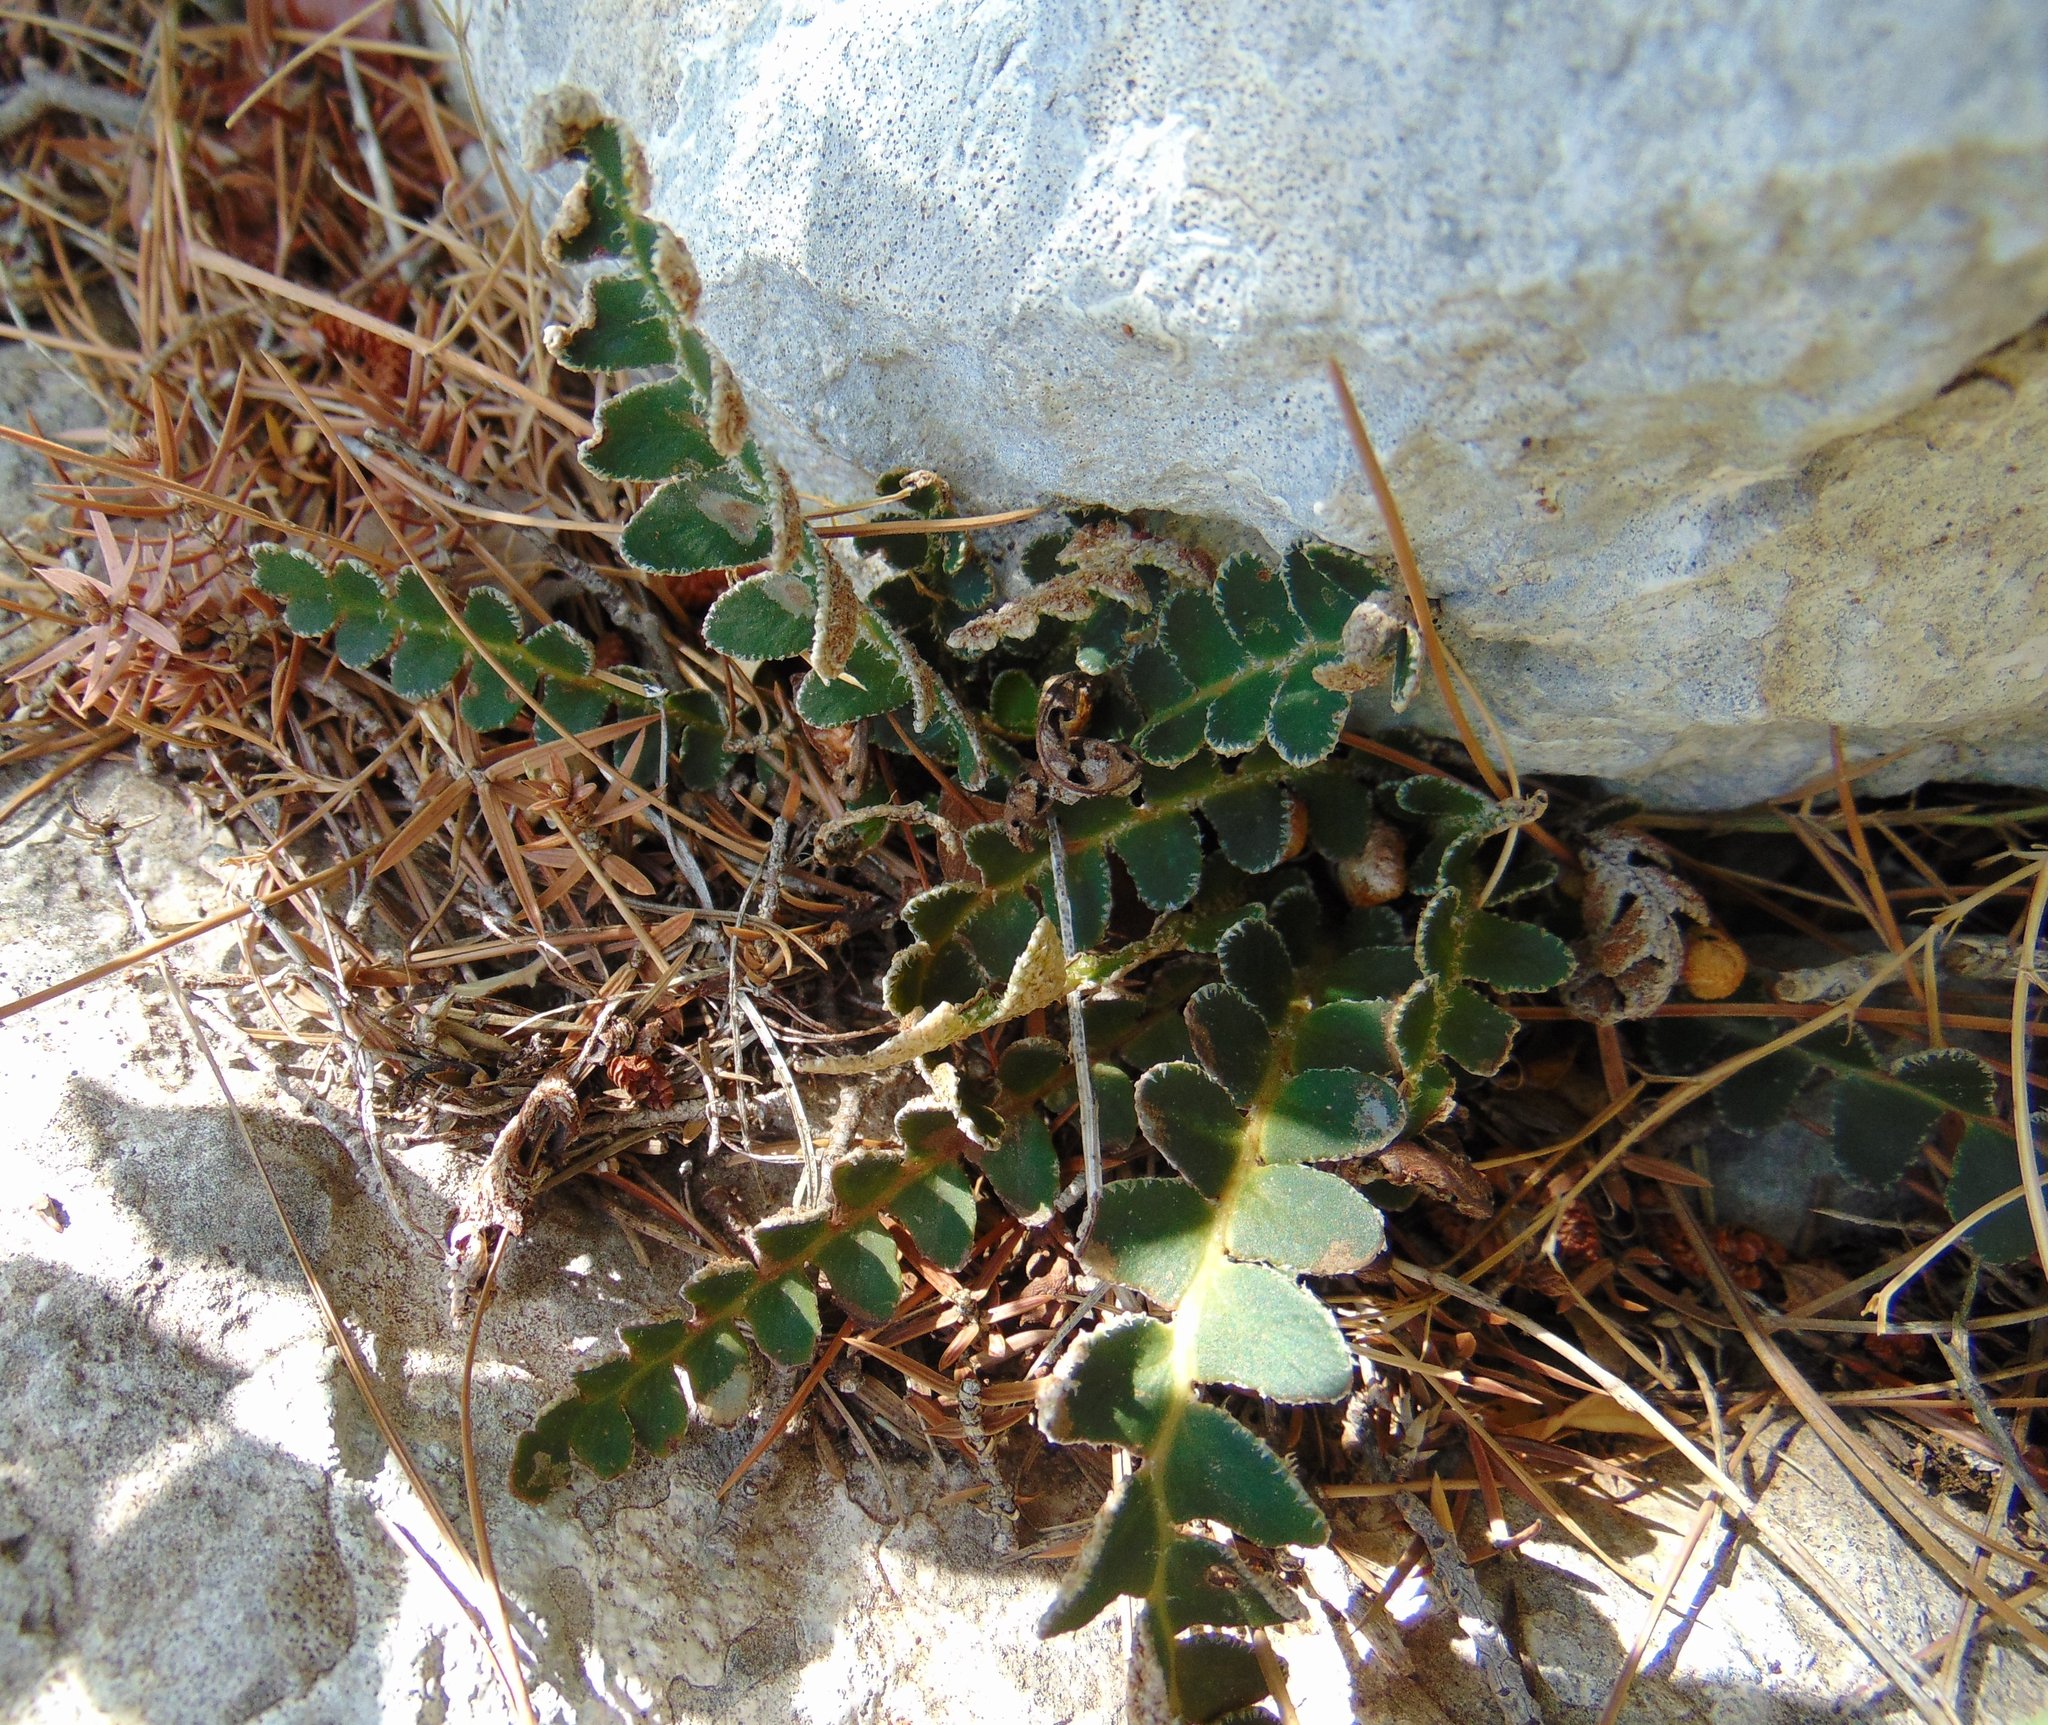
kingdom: Plantae
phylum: Tracheophyta
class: Polypodiopsida
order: Polypodiales
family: Aspleniaceae
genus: Asplenium
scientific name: Asplenium ceterach
